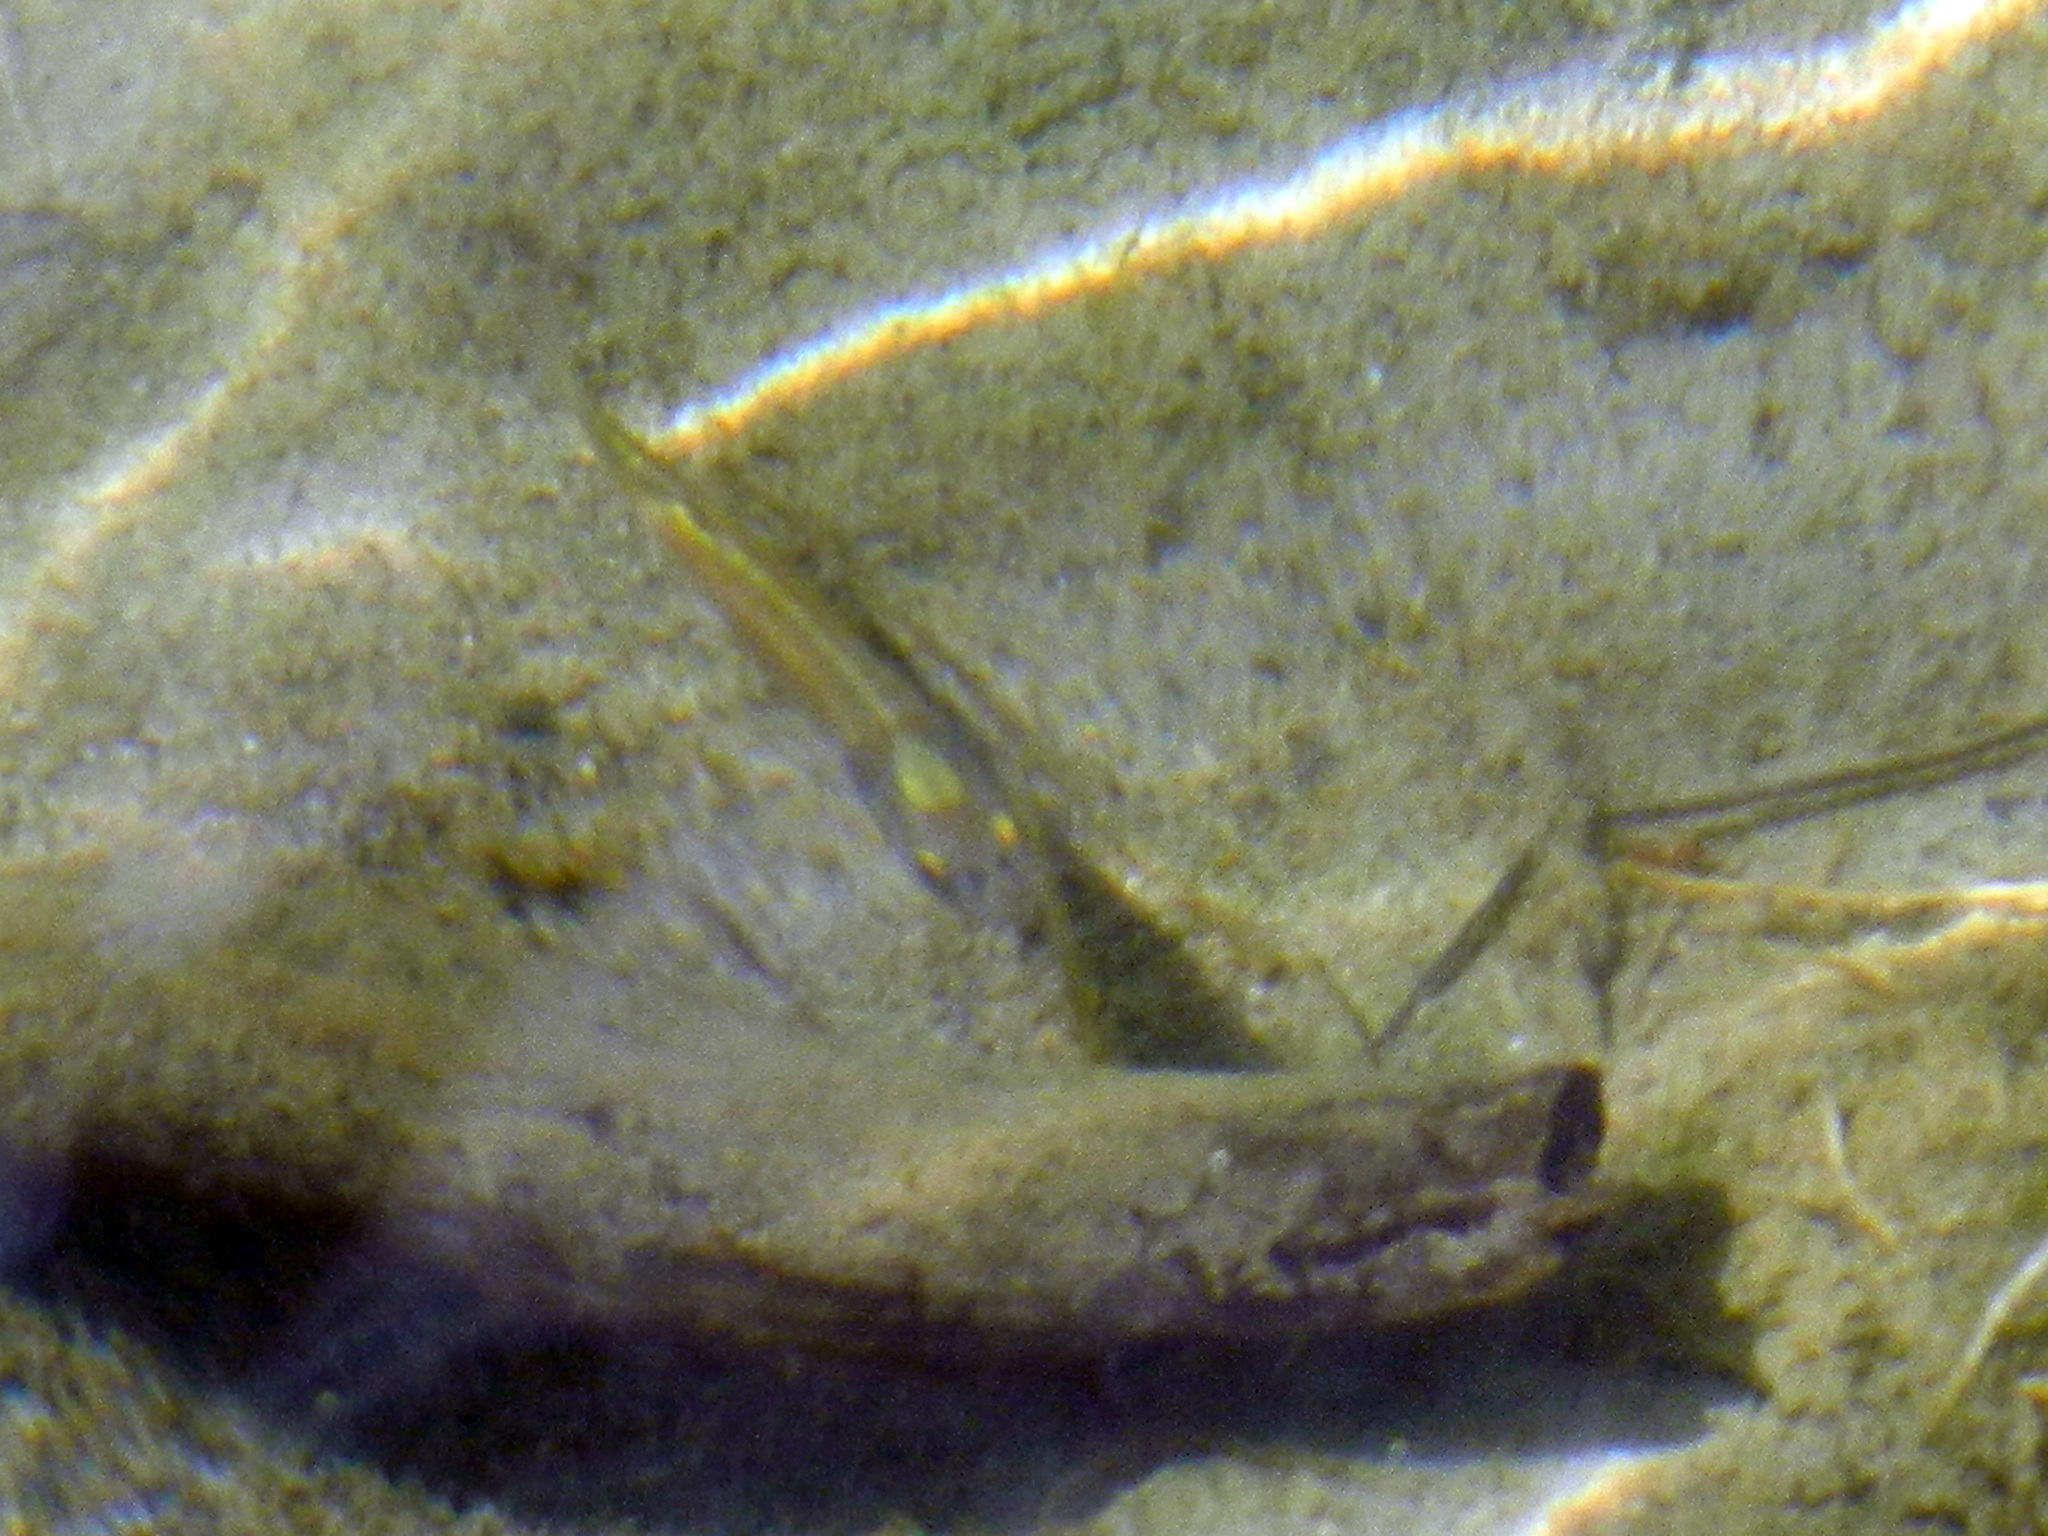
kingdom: Animalia
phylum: Chordata
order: Cypriniformes
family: Cyprinidae
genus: Pimephales
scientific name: Pimephales promelas
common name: Fathead minnow
